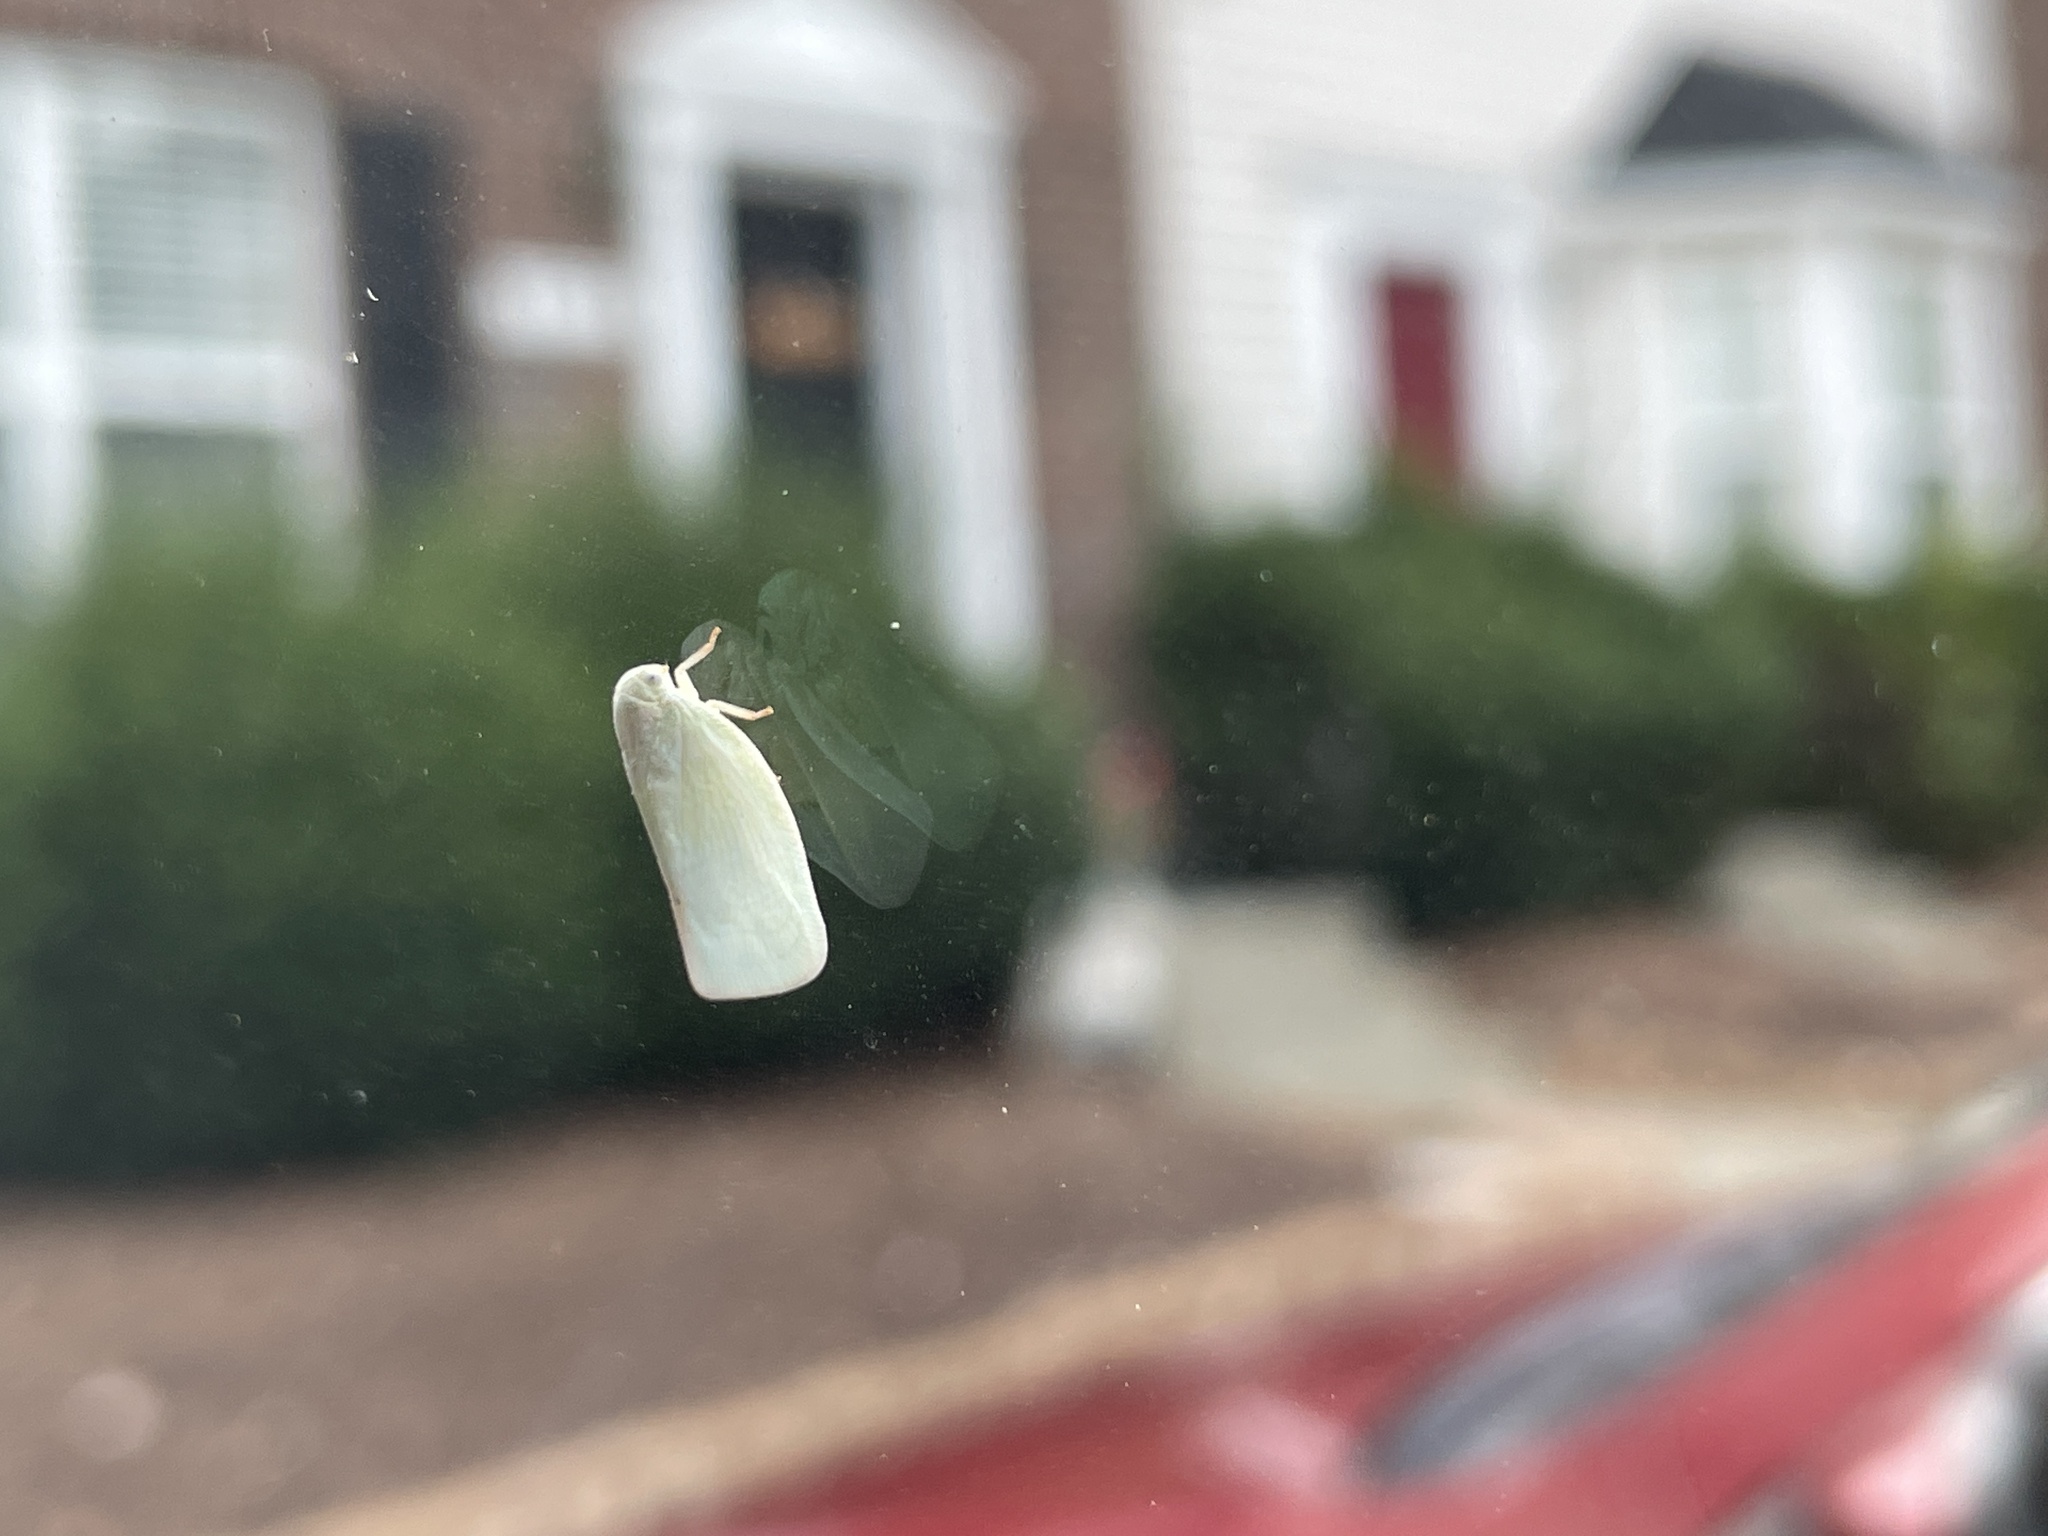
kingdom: Animalia
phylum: Arthropoda
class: Insecta
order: Hemiptera
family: Flatidae
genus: Flatormenis
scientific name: Flatormenis proxima
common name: Northern flatid planthopper
